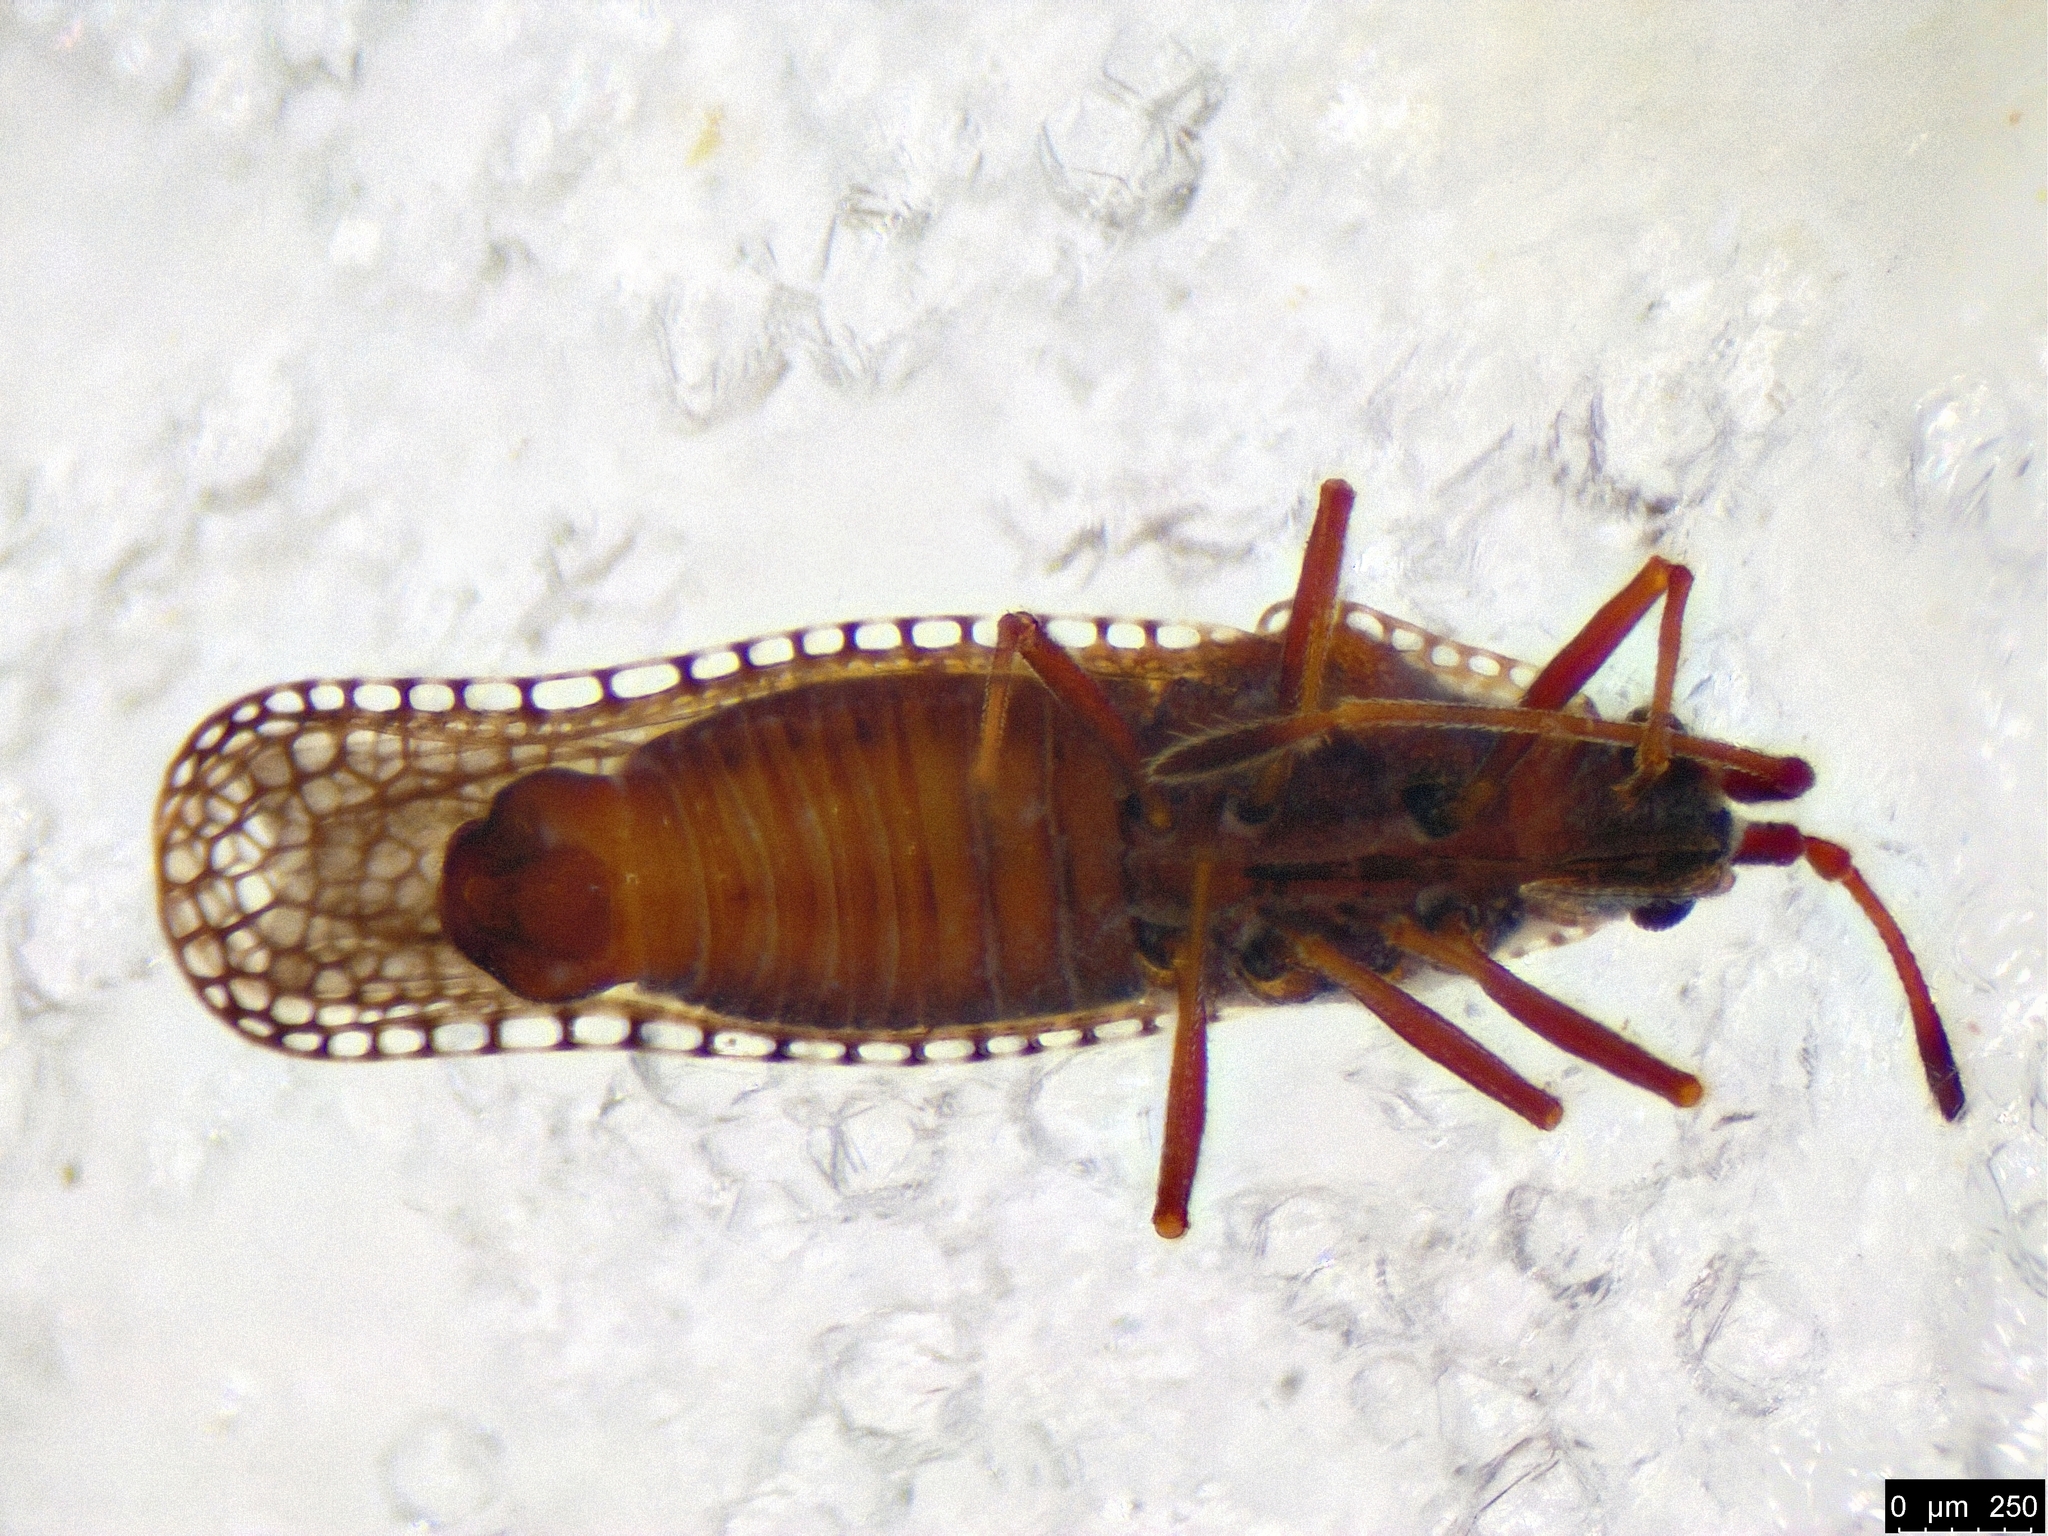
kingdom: Animalia
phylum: Arthropoda
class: Insecta
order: Hemiptera
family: Tingidae
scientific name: Tingidae
